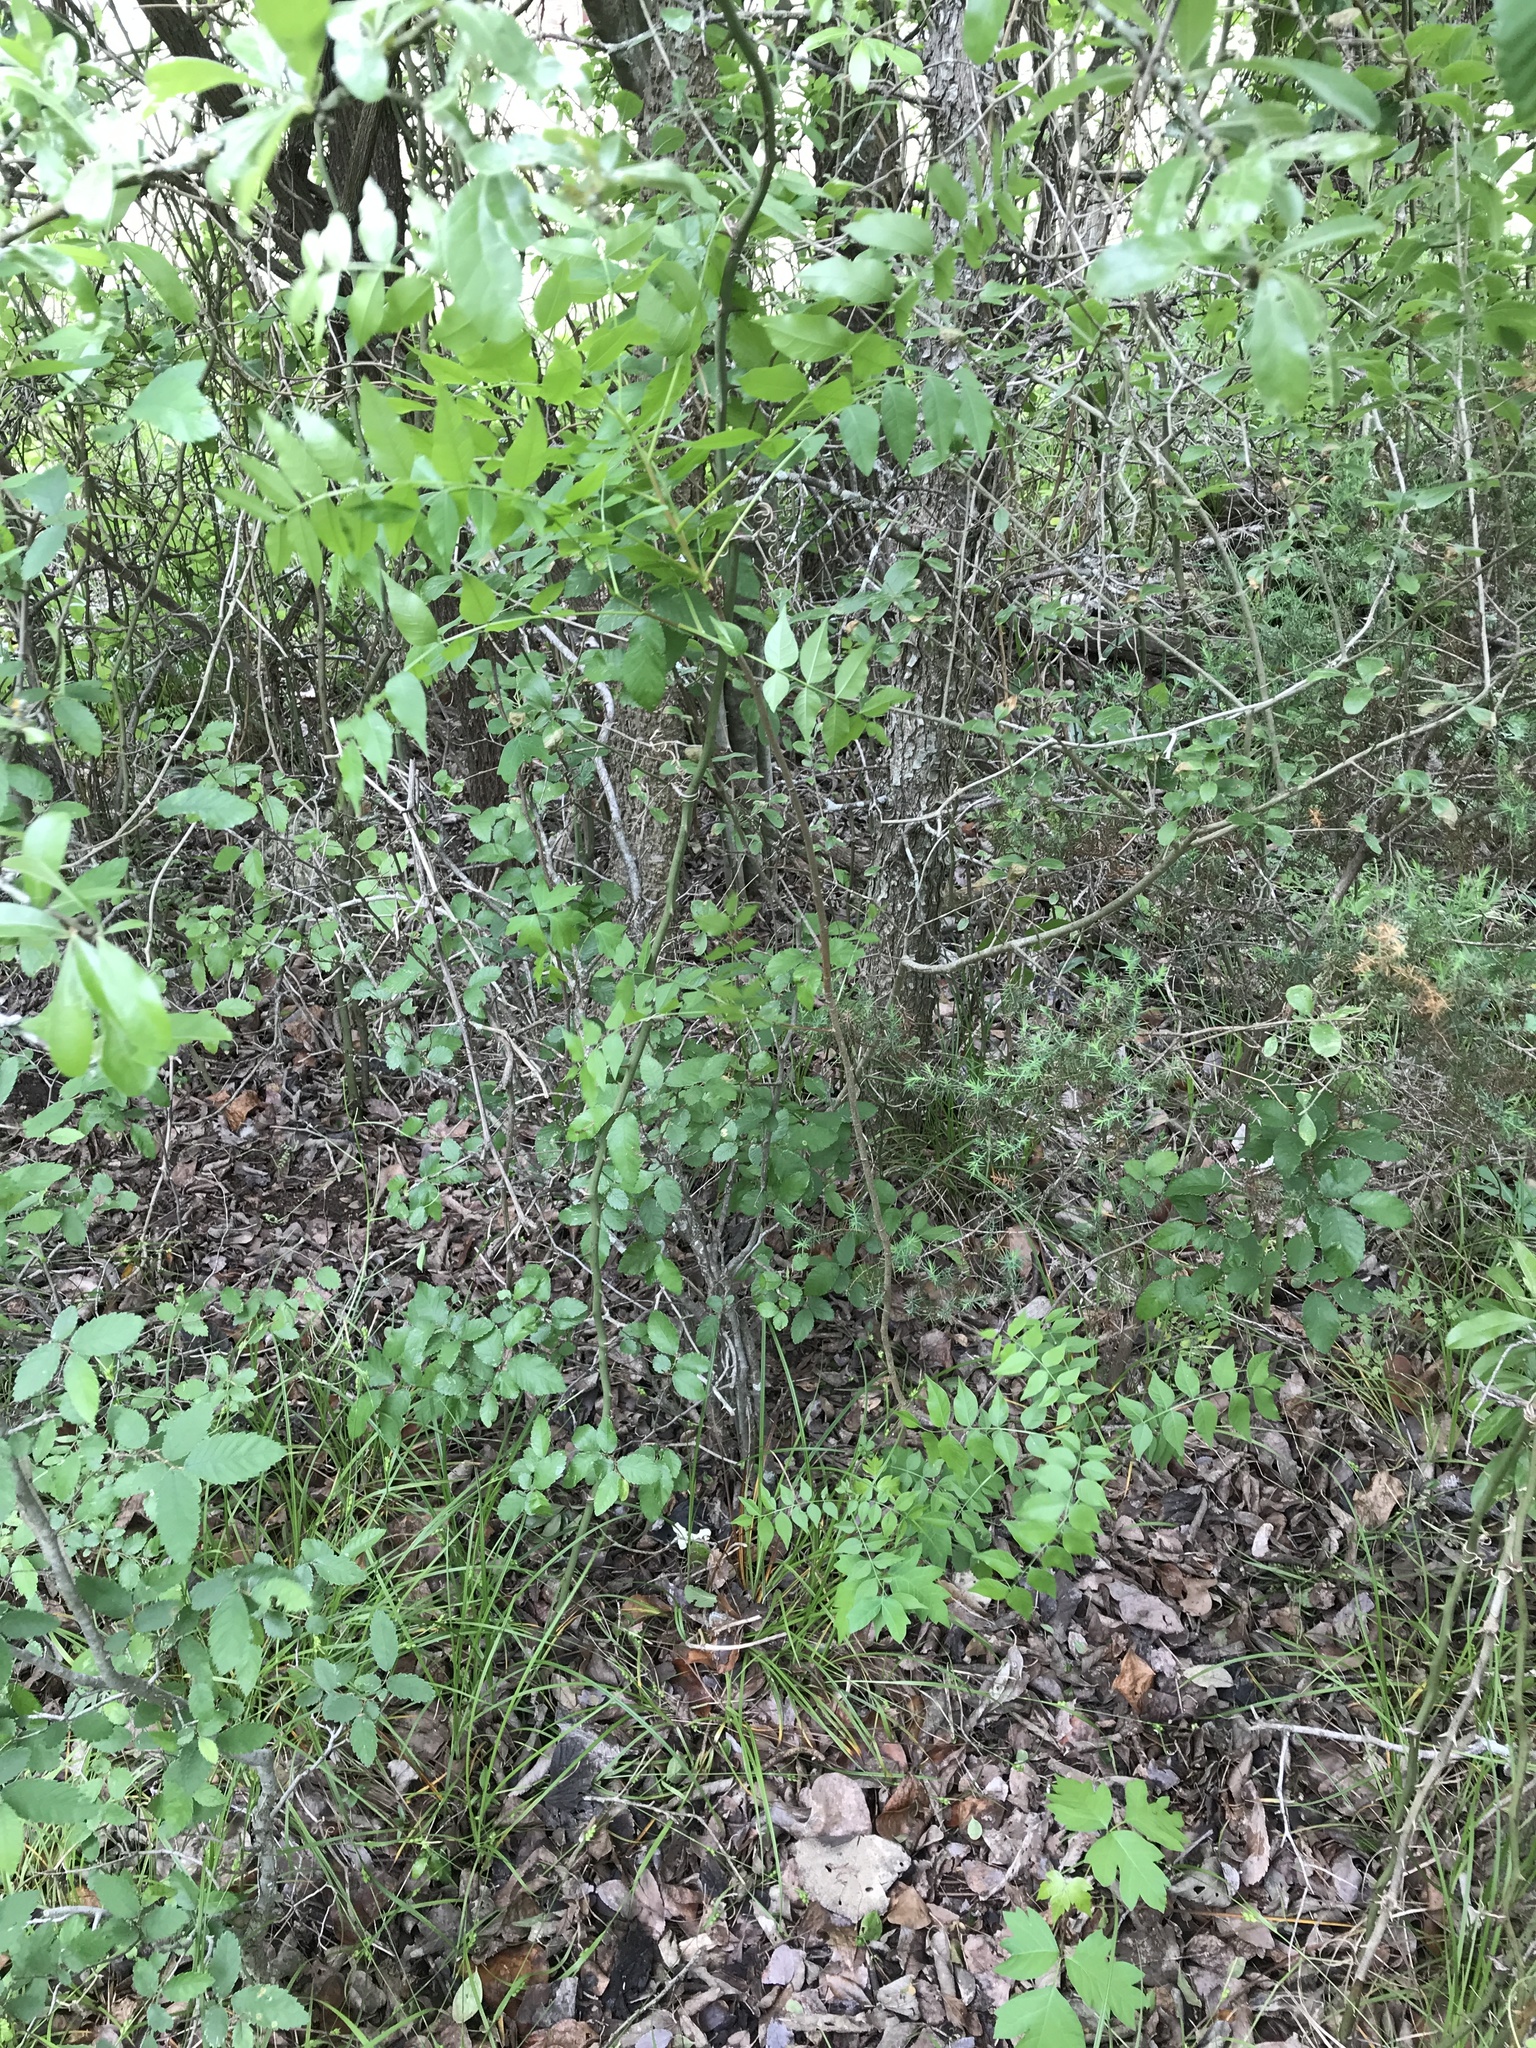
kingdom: Plantae
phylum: Tracheophyta
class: Magnoliopsida
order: Sapindales
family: Anacardiaceae
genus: Pistacia
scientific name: Pistacia chinensis
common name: Chinese pistache
